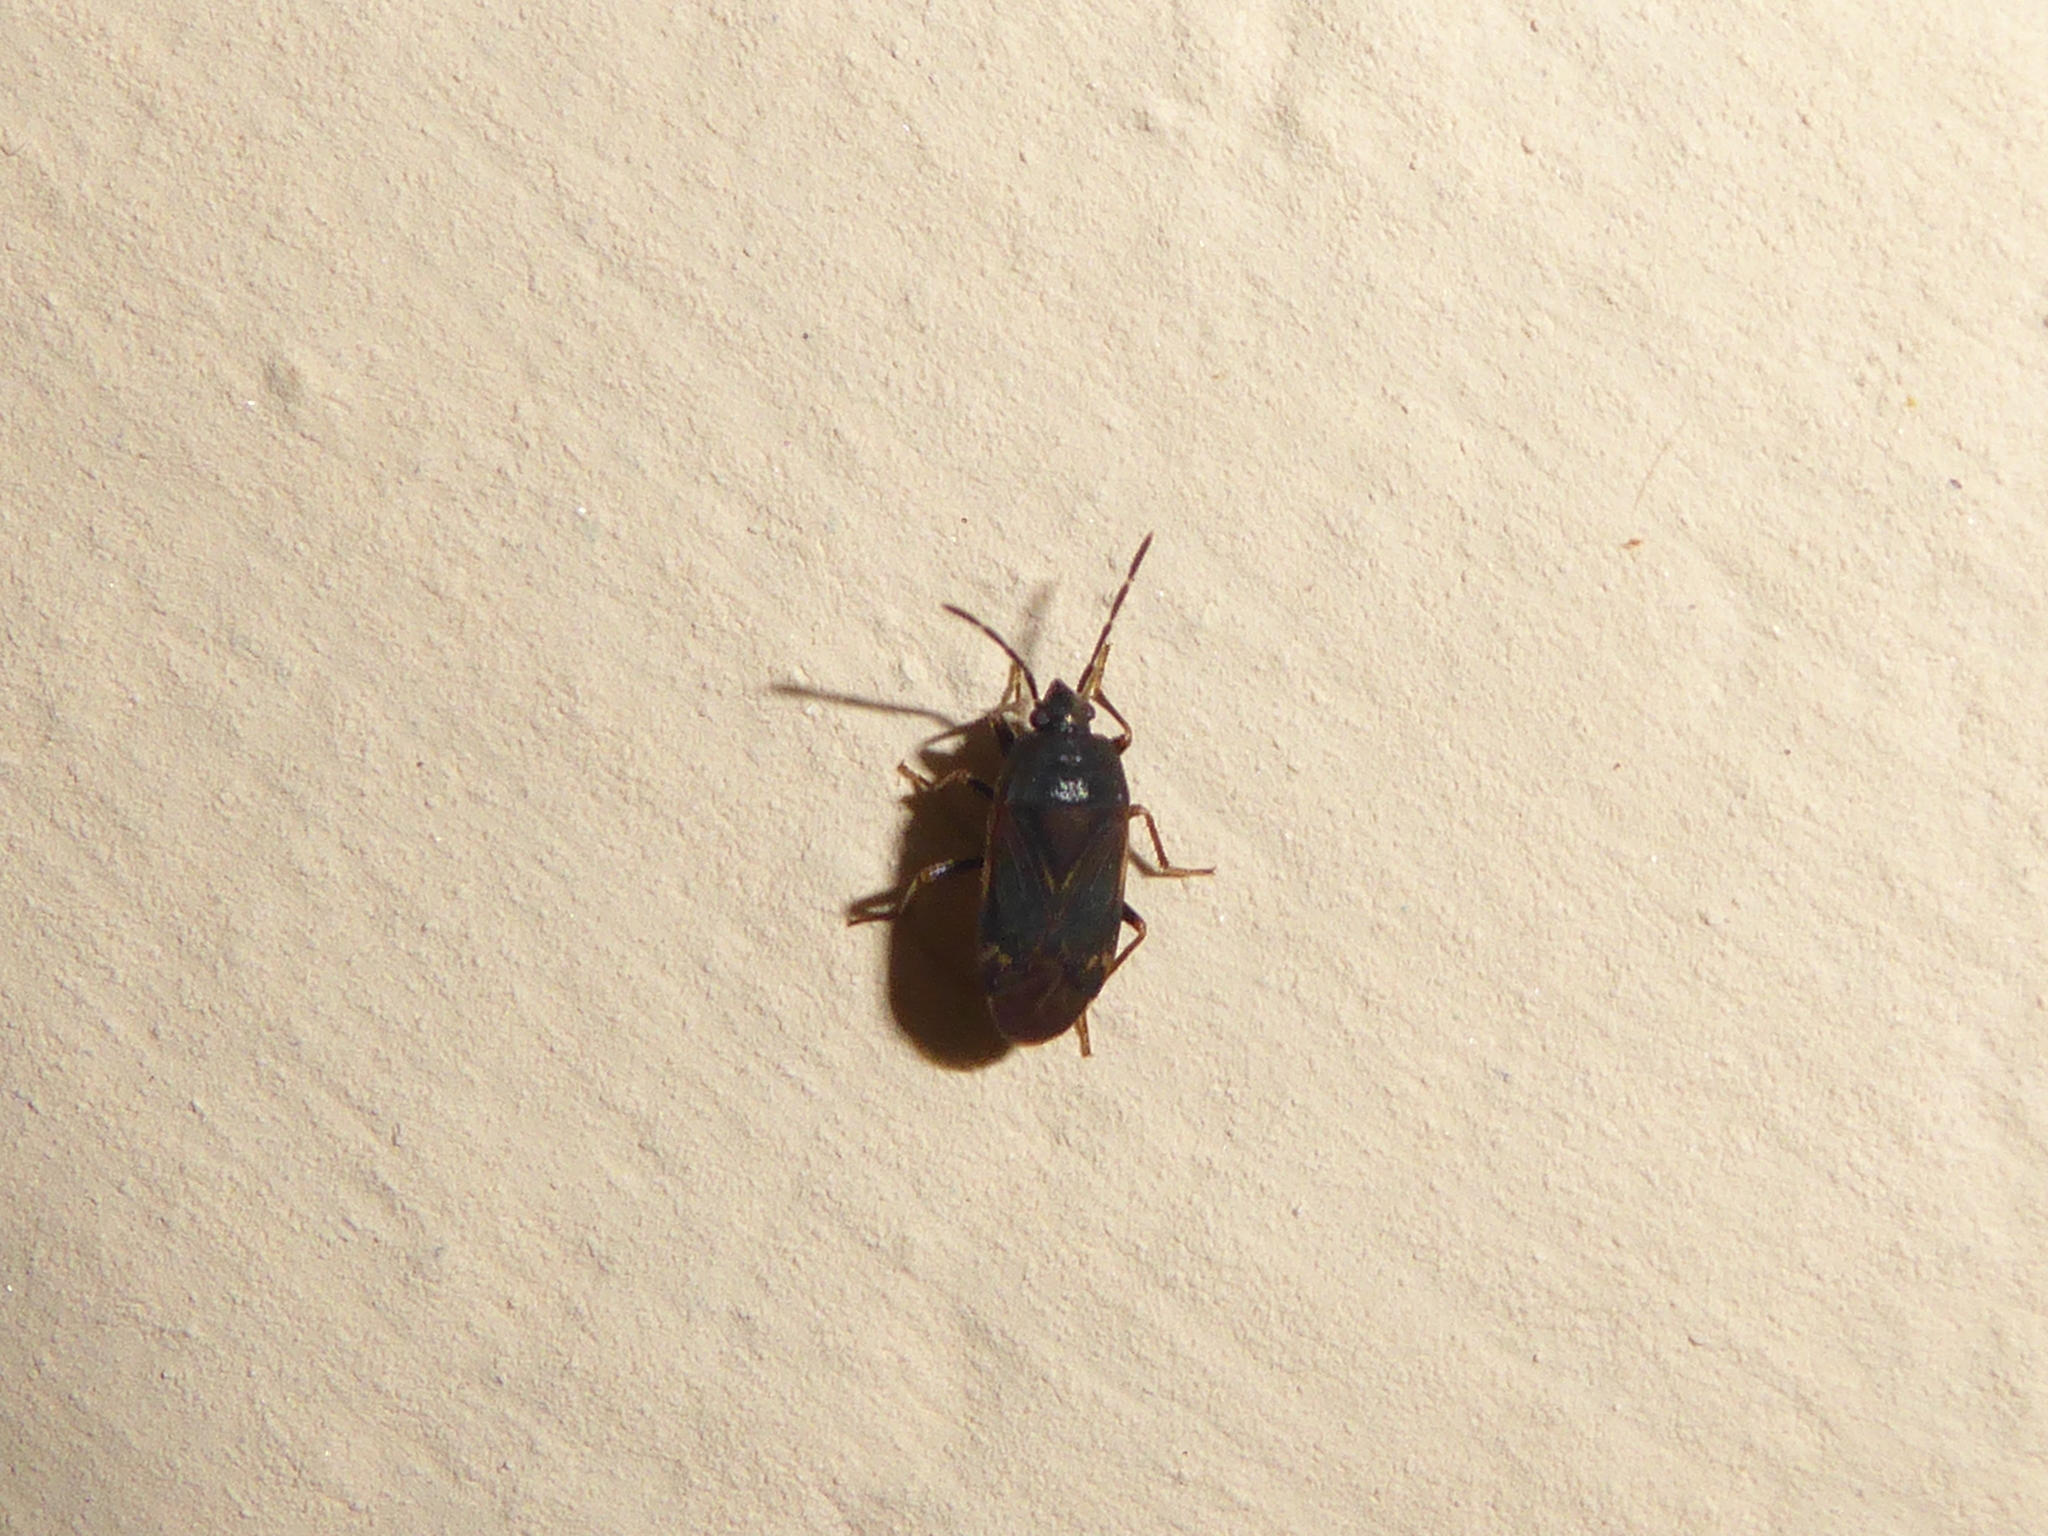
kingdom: Animalia
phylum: Arthropoda
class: Insecta
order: Hemiptera
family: Rhyparochromidae
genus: Paragonatas
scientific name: Paragonatas divergens
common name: Seed bug
